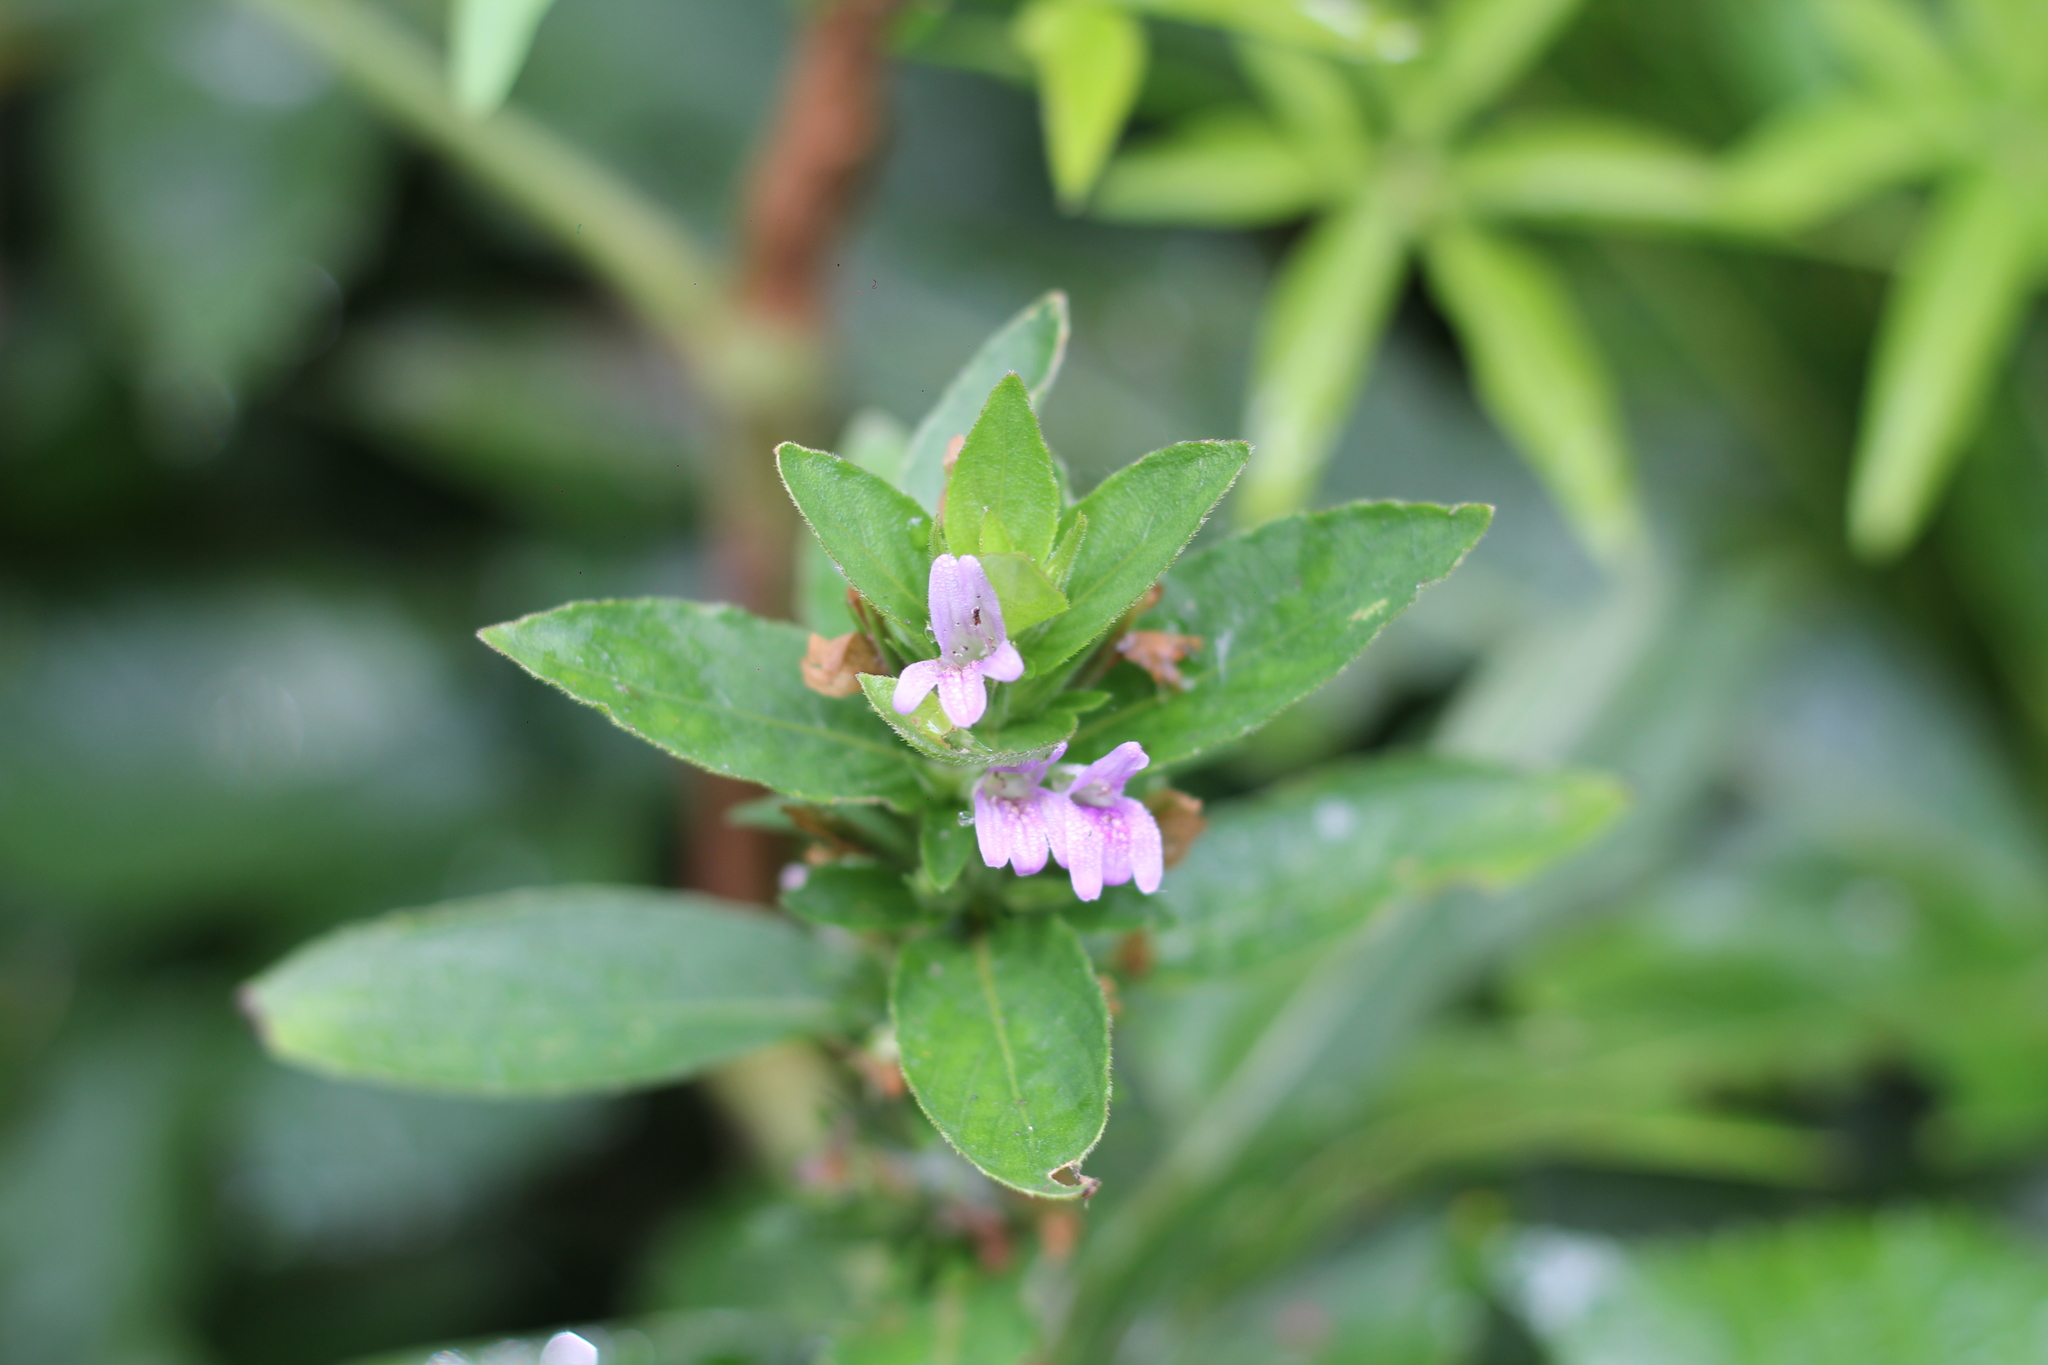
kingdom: Plantae
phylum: Tracheophyta
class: Magnoliopsida
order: Lamiales
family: Acanthaceae
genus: Hygrophila
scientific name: Hygrophila costata
